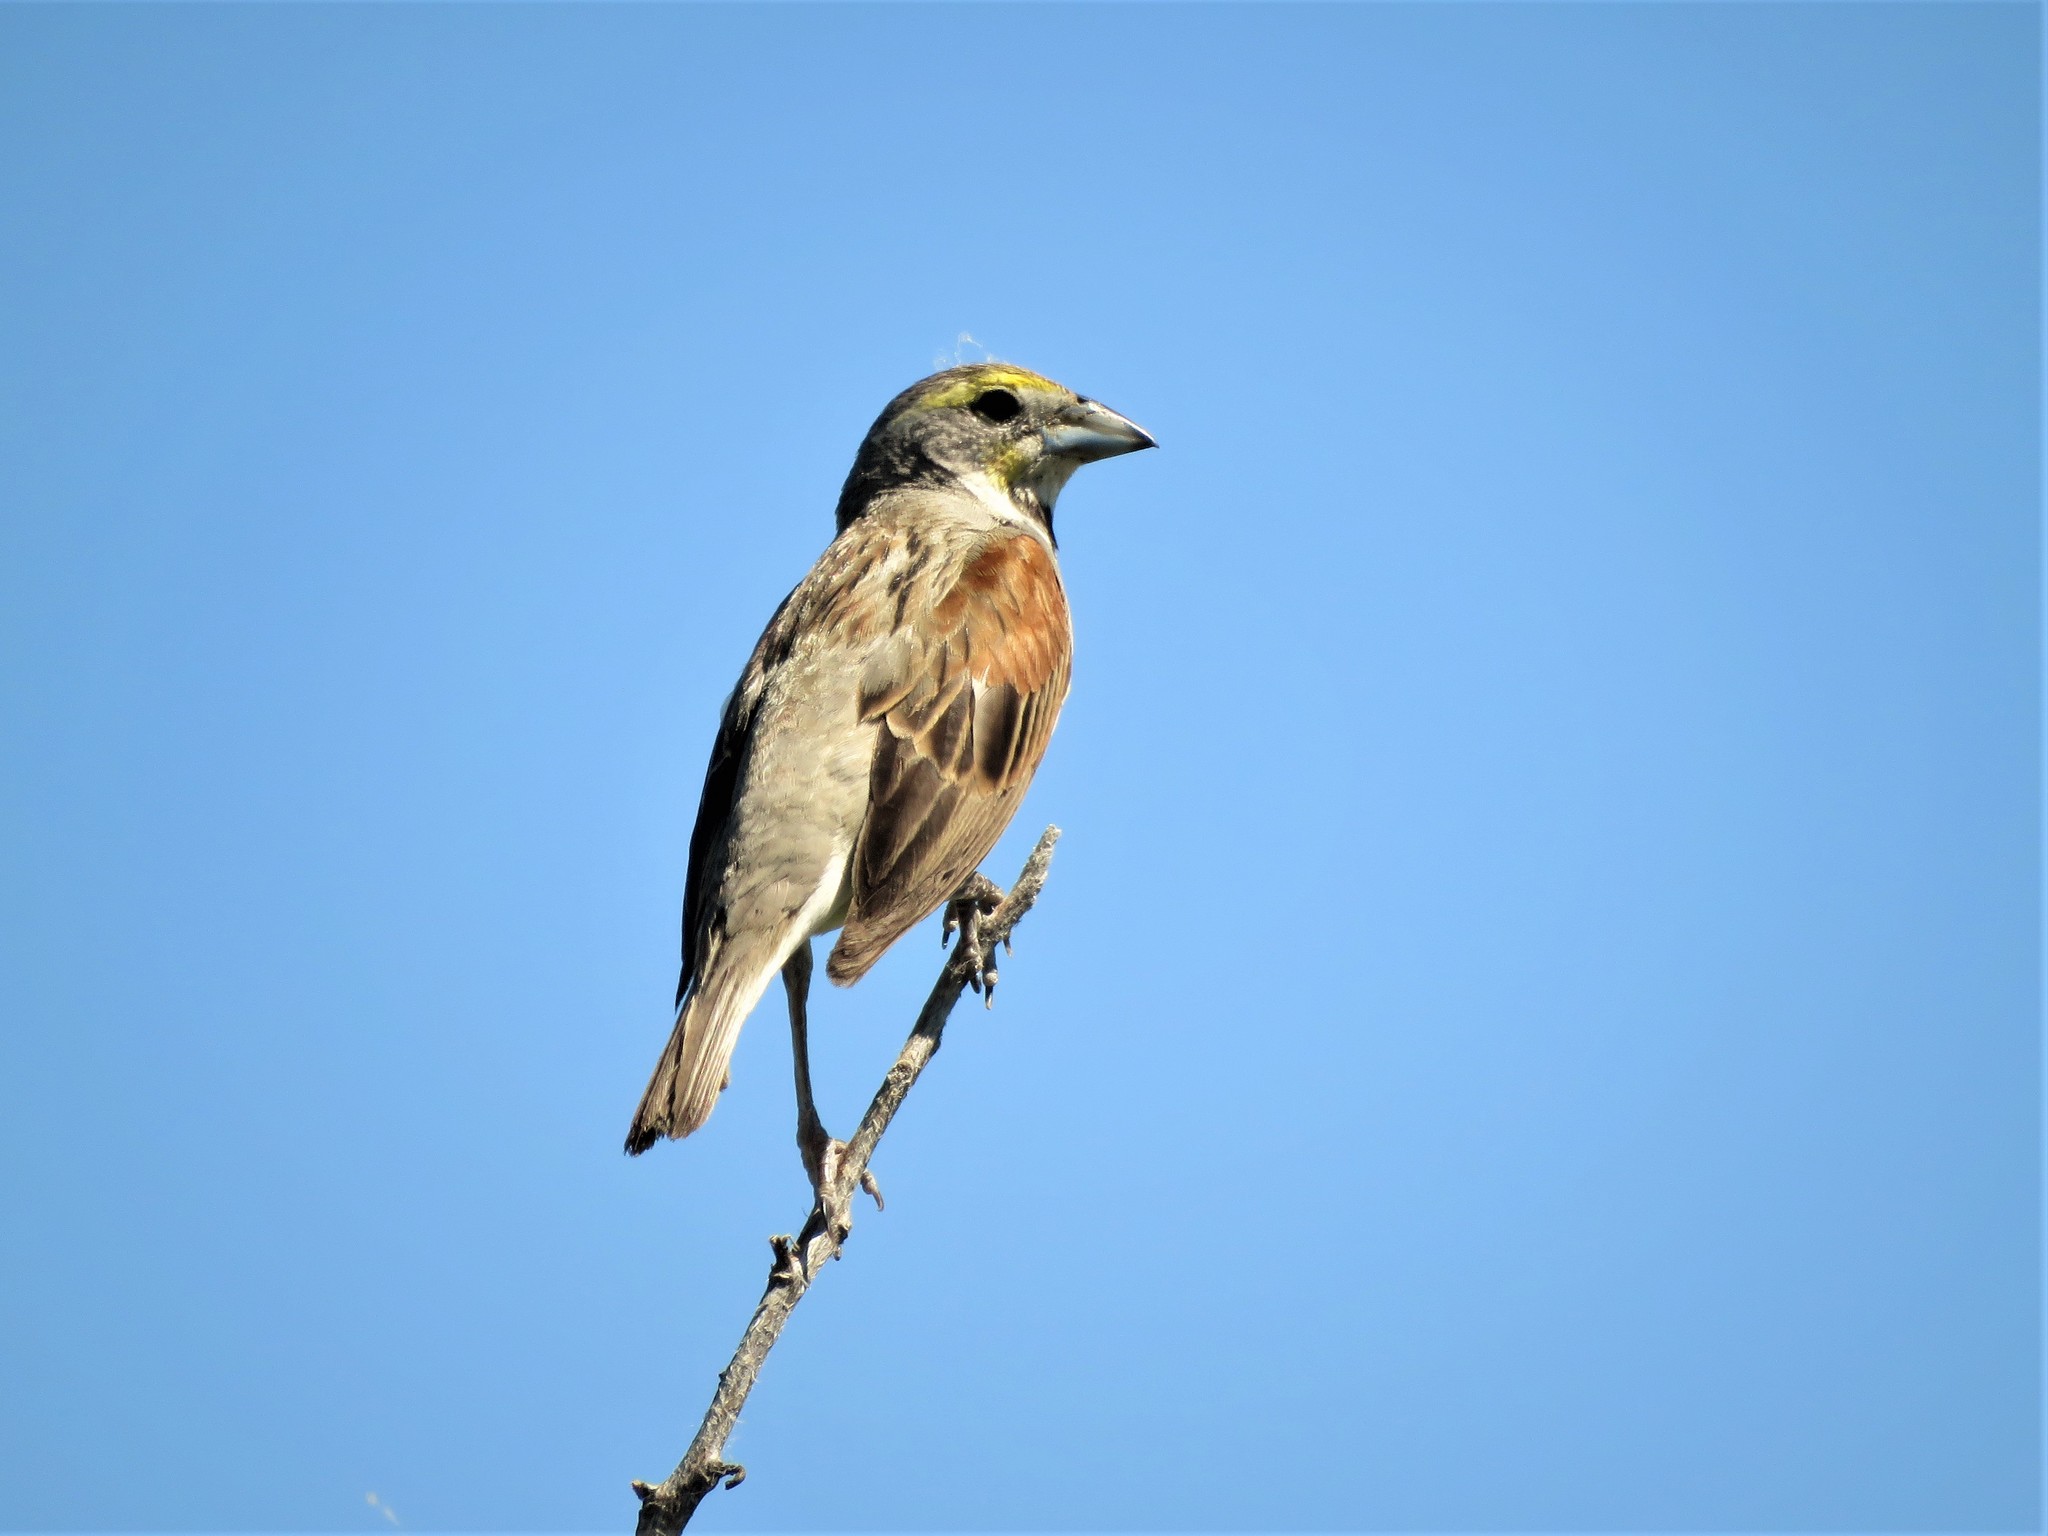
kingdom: Animalia
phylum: Chordata
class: Aves
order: Passeriformes
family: Cardinalidae
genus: Spiza
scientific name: Spiza americana
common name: Dickcissel
